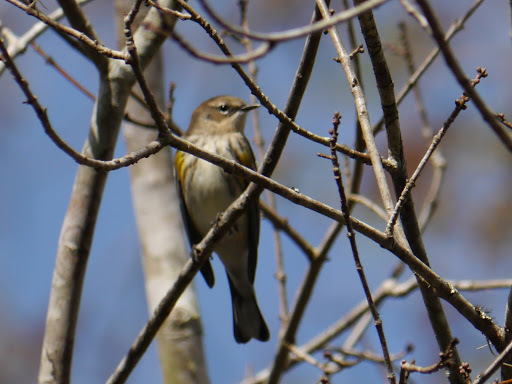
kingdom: Animalia
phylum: Chordata
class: Aves
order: Passeriformes
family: Parulidae
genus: Setophaga
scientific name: Setophaga coronata
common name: Myrtle warbler
